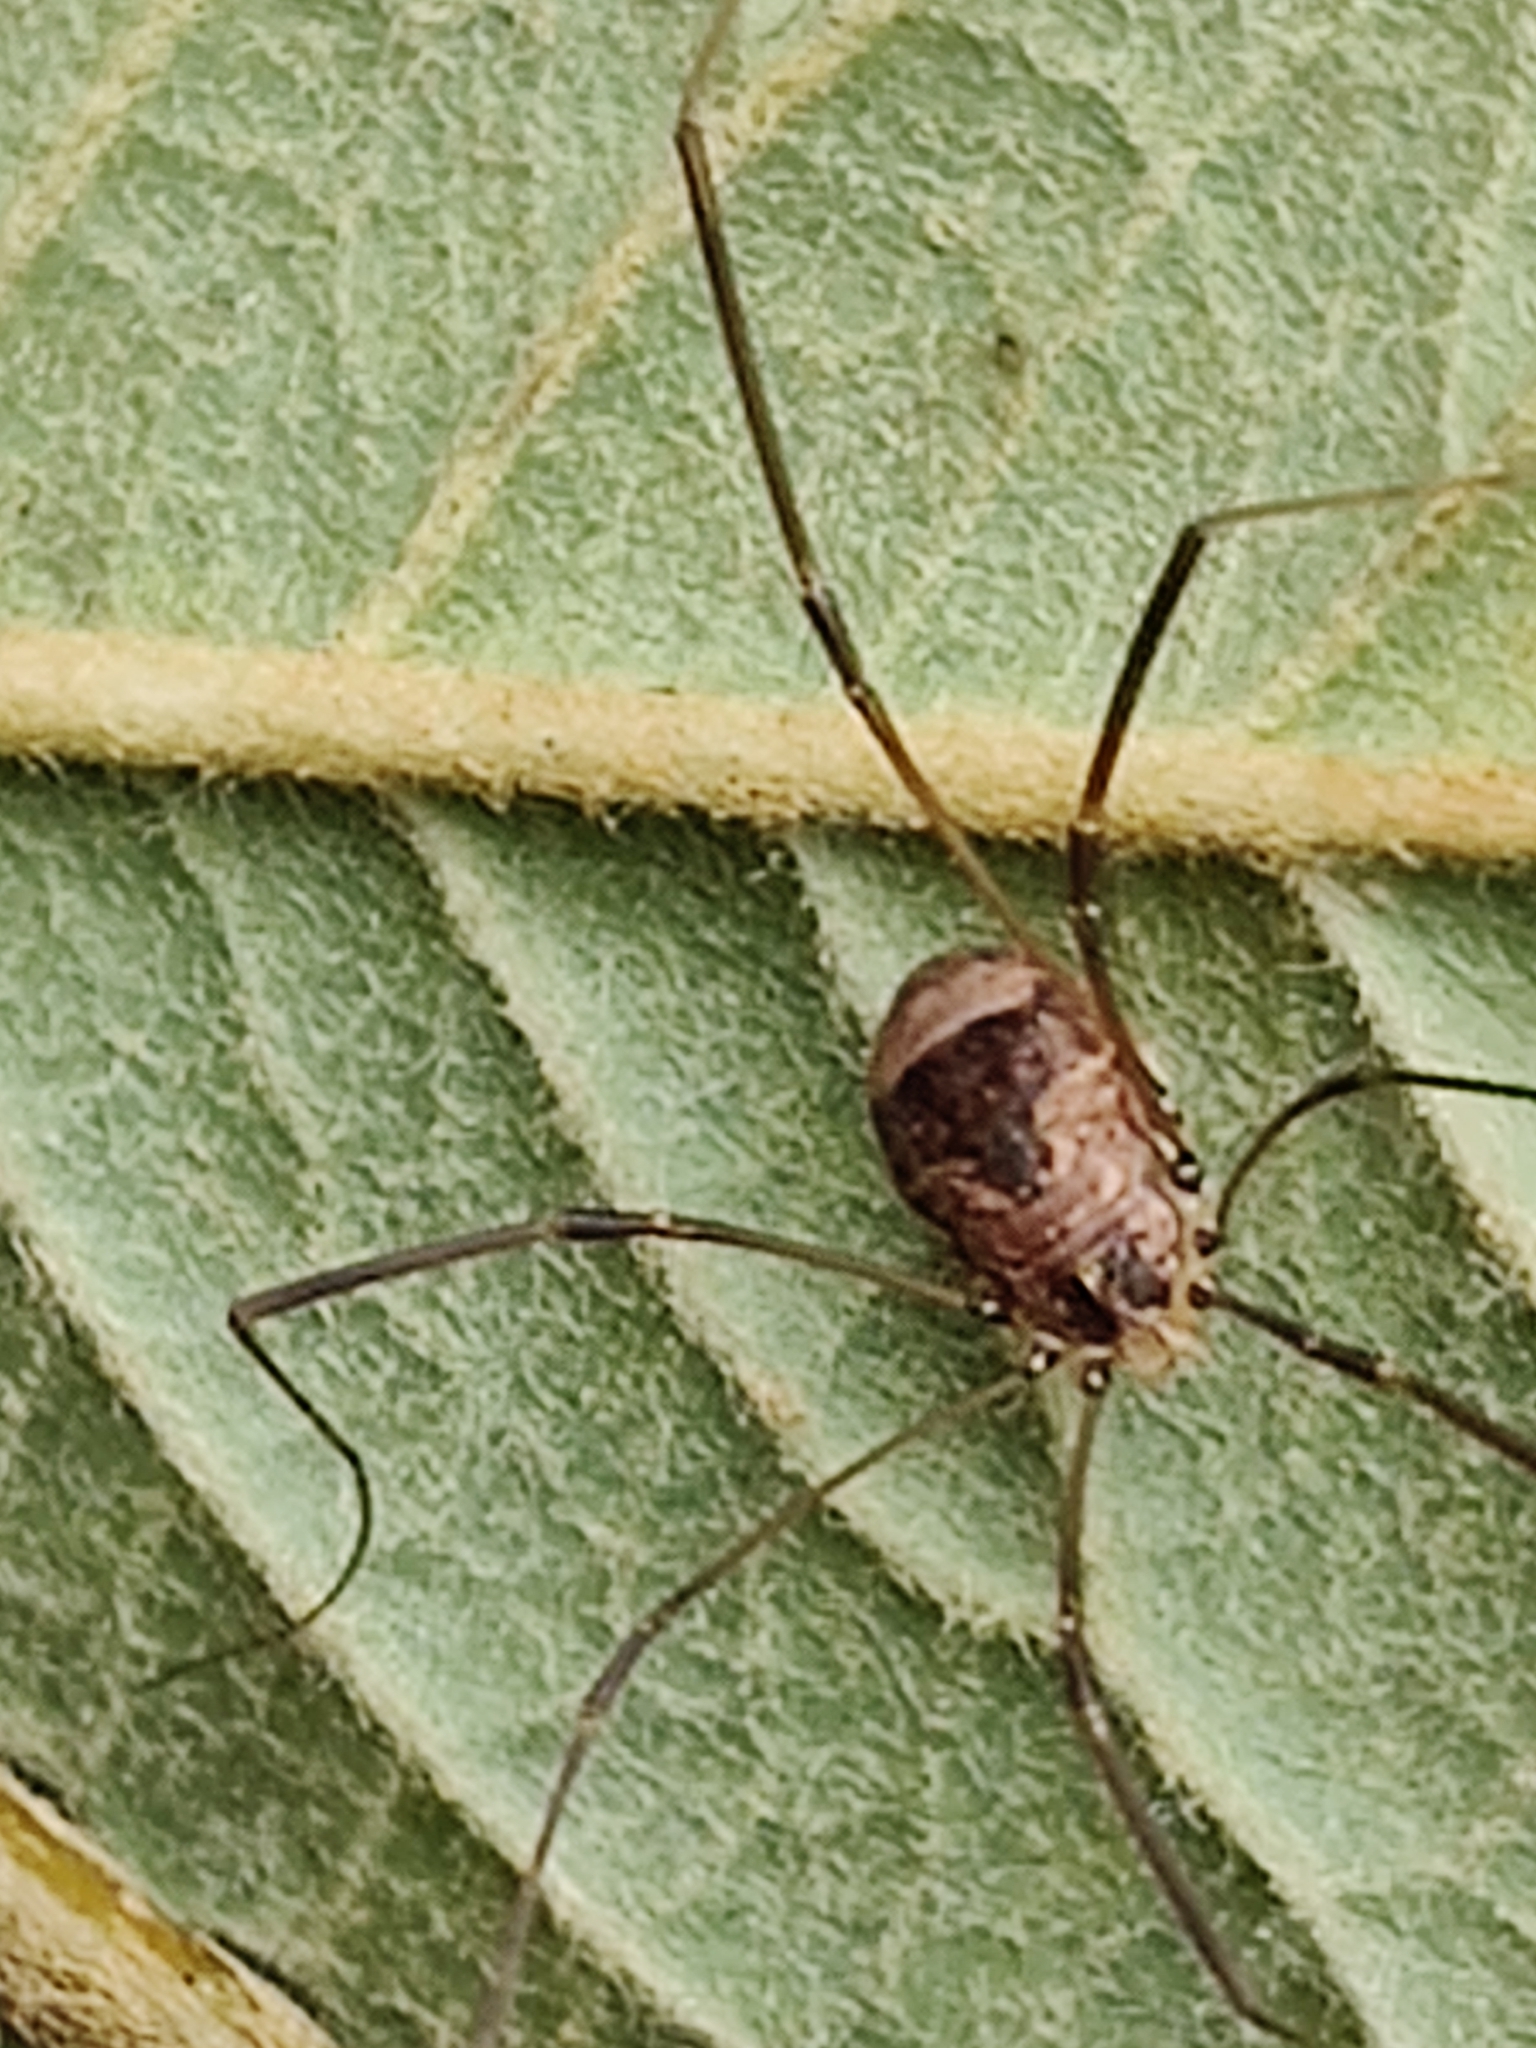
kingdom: Animalia
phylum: Arthropoda
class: Arachnida
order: Opiliones
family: Sclerosomatidae
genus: Leiobunum
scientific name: Leiobunum blackwalli
